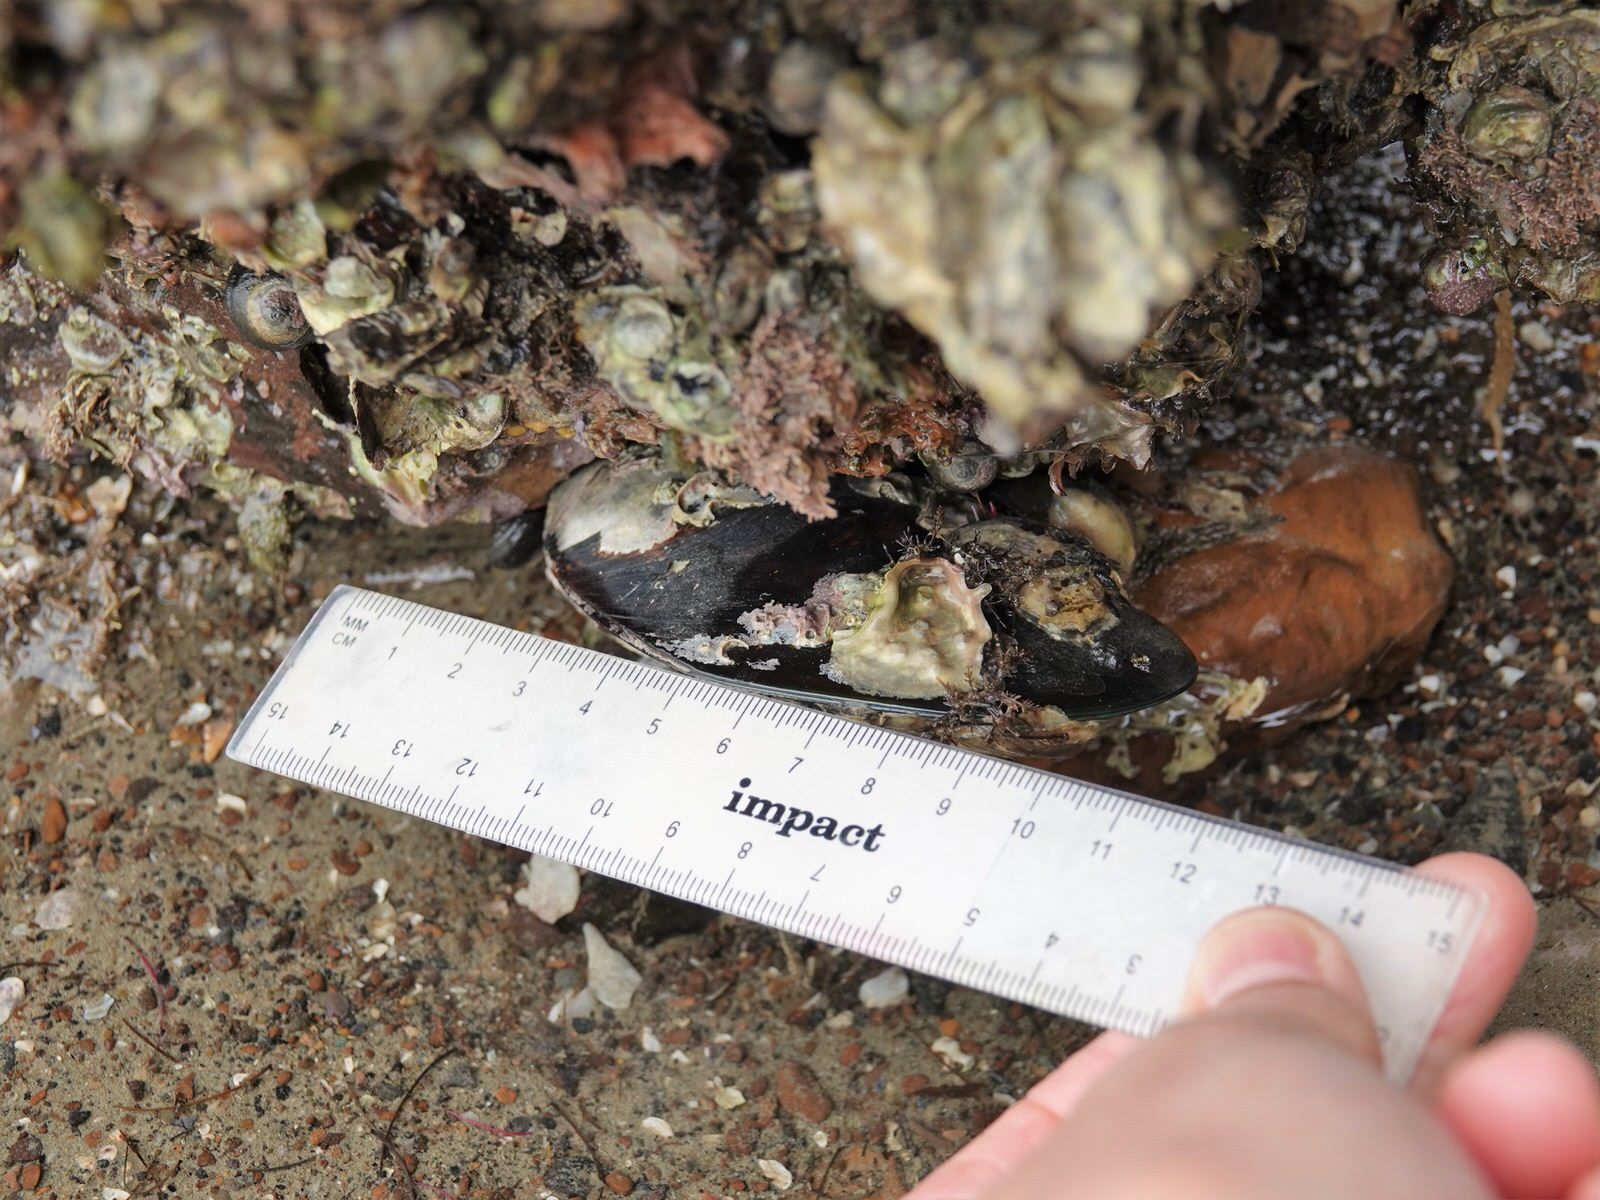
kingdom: Animalia
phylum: Mollusca
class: Bivalvia
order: Mytilida
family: Mytilidae
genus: Perna
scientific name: Perna canaliculus
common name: New zealand greenshelltm
